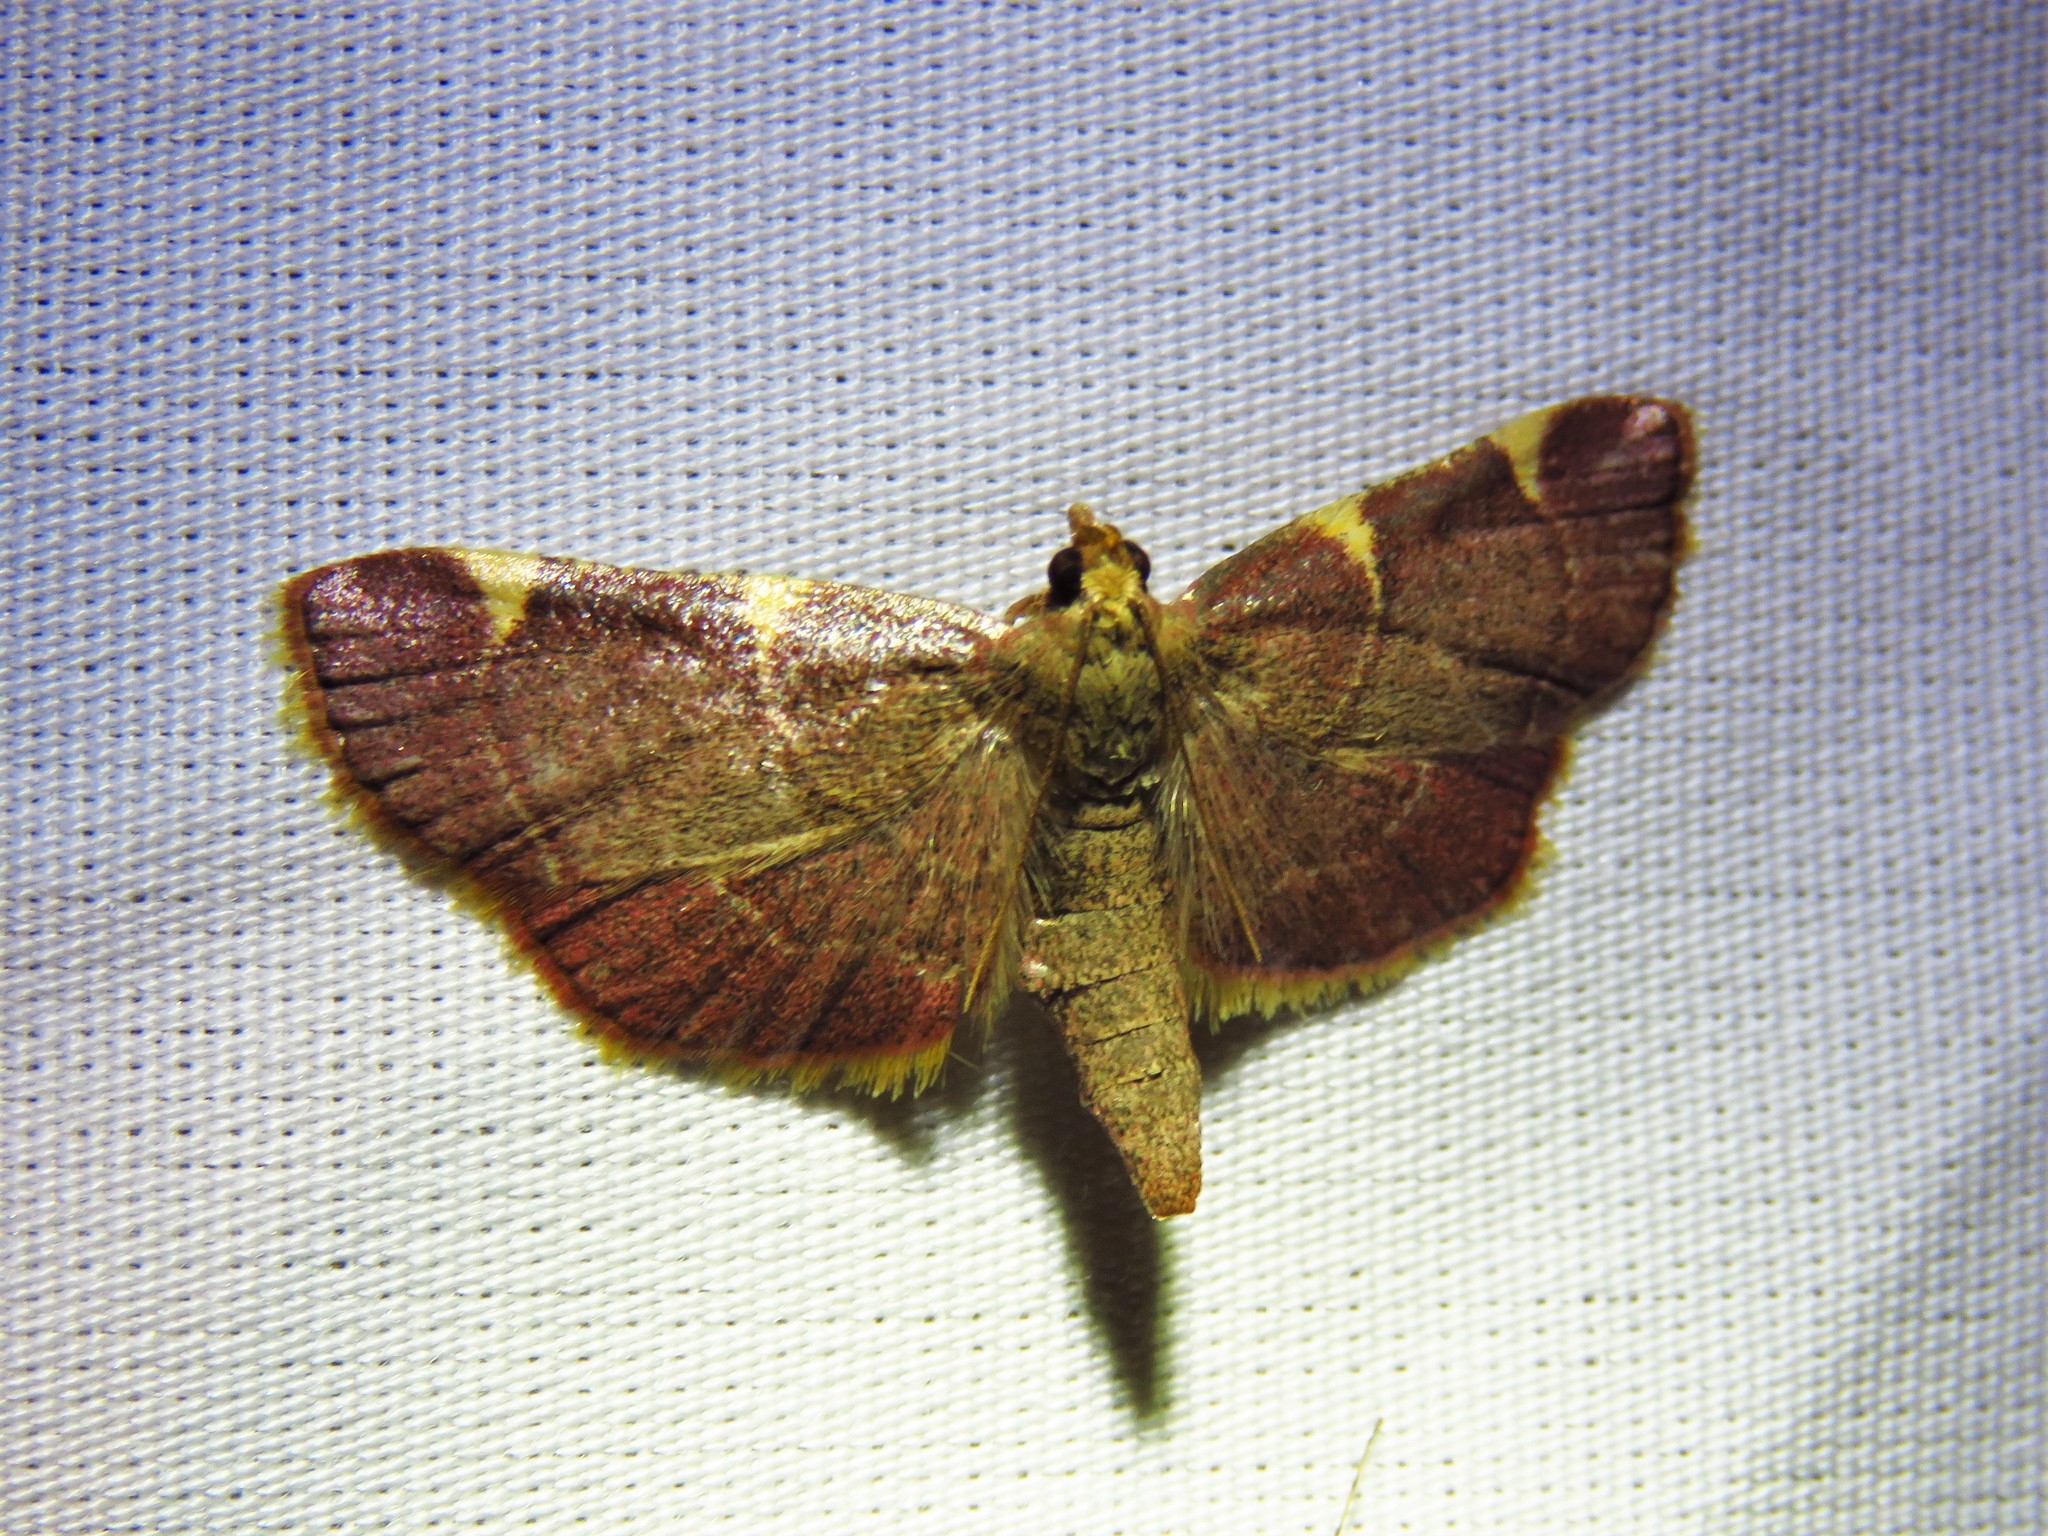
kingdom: Animalia
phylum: Arthropoda
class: Insecta
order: Lepidoptera
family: Pyralidae
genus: Hypsopygia
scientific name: Hypsopygia olinalis
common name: Yellow-fringed dolichomia moth
